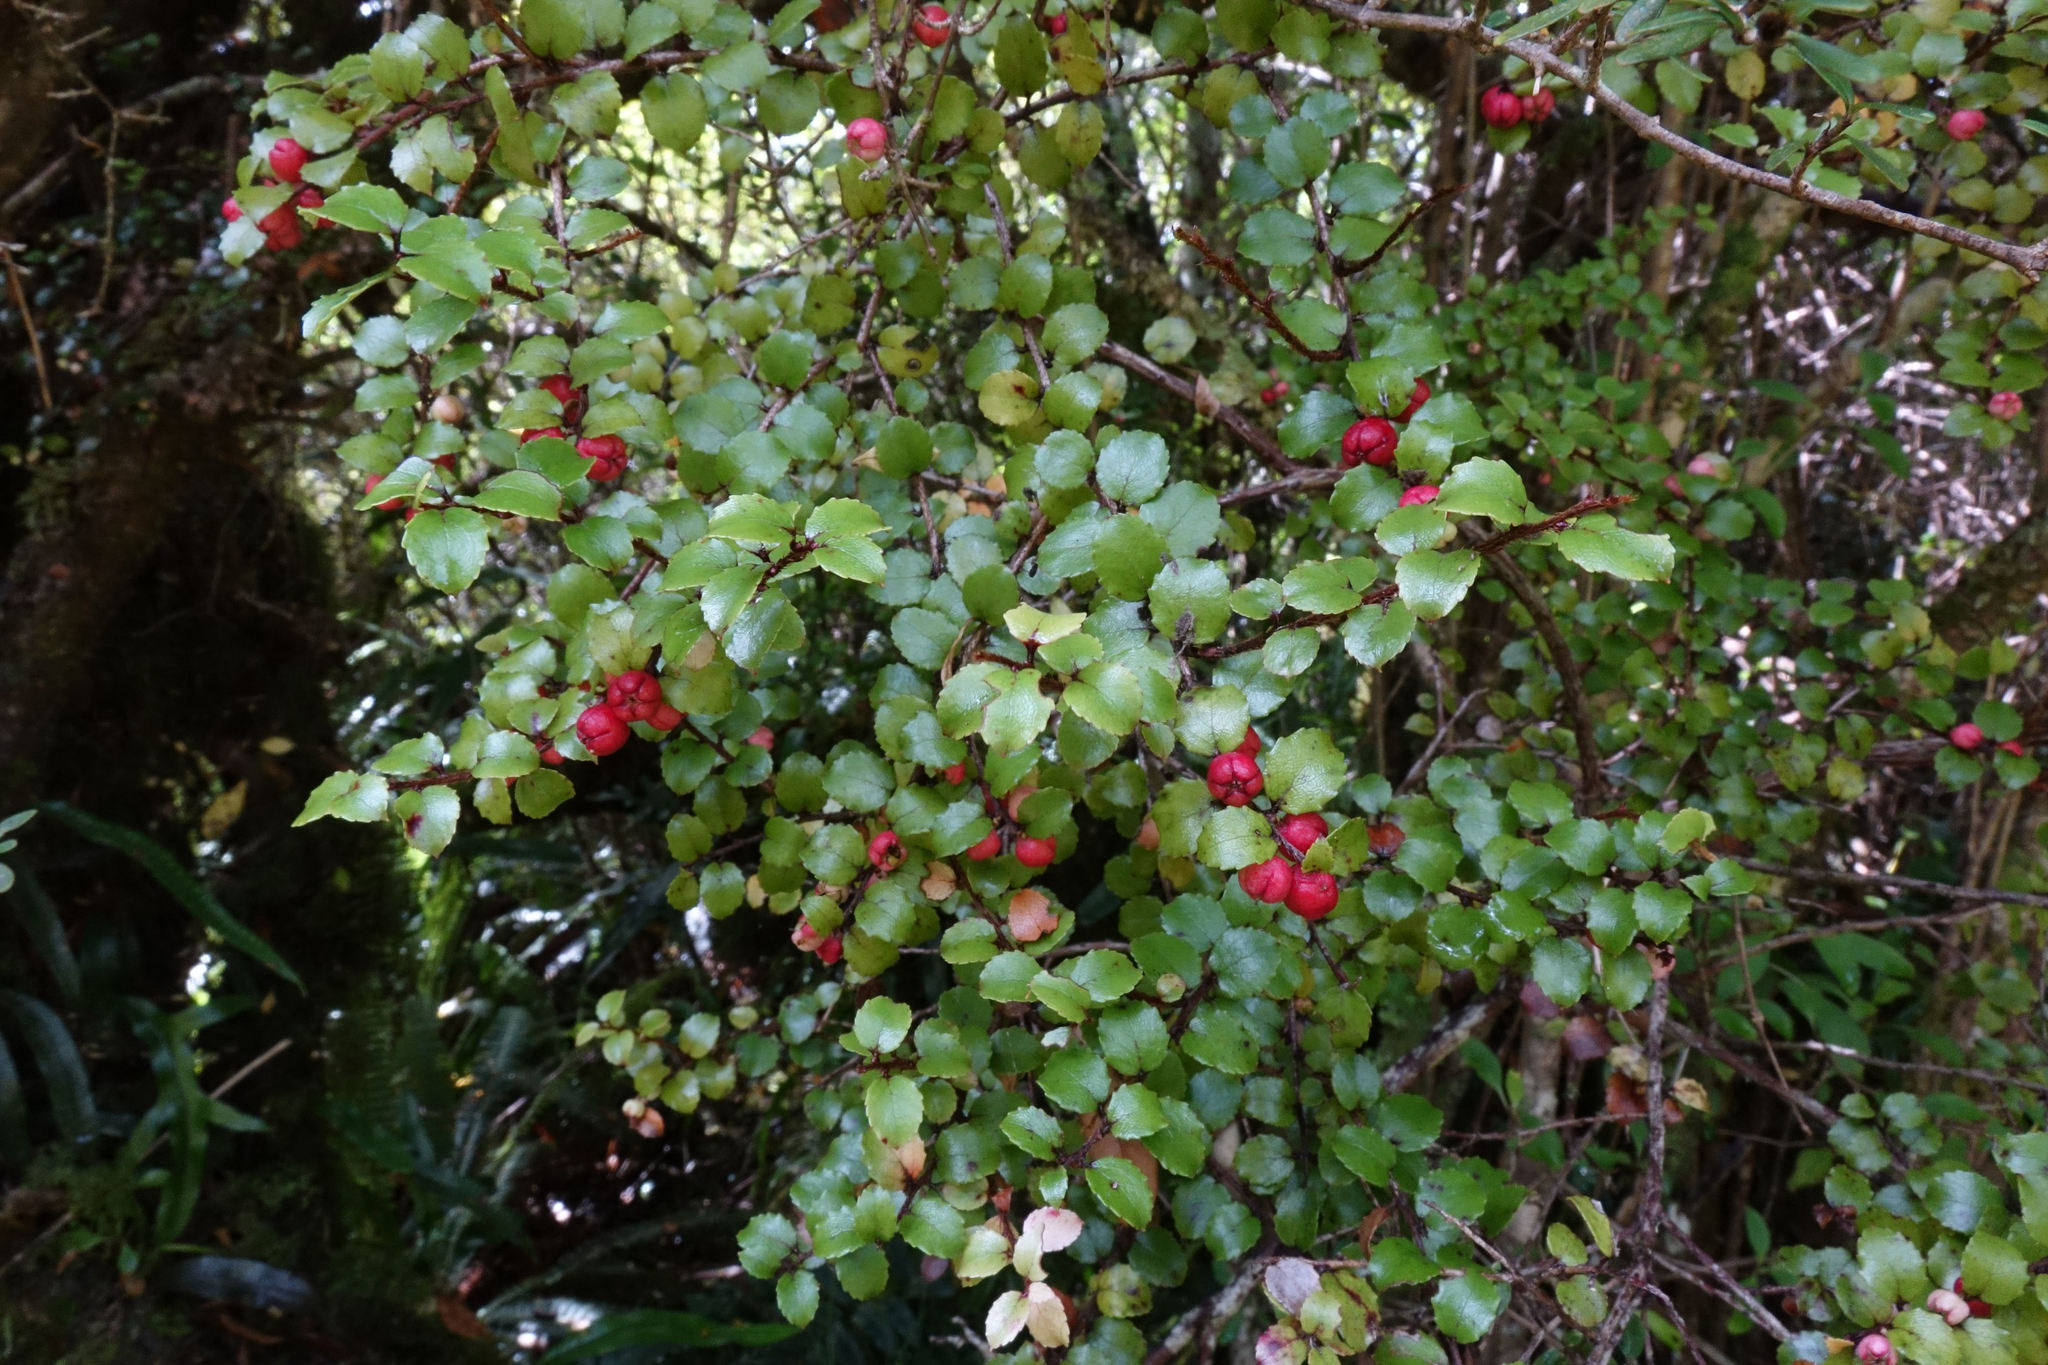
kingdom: Plantae
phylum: Tracheophyta
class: Magnoliopsida
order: Ericales
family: Ericaceae
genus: Gaultheria
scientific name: Gaultheria antipoda
